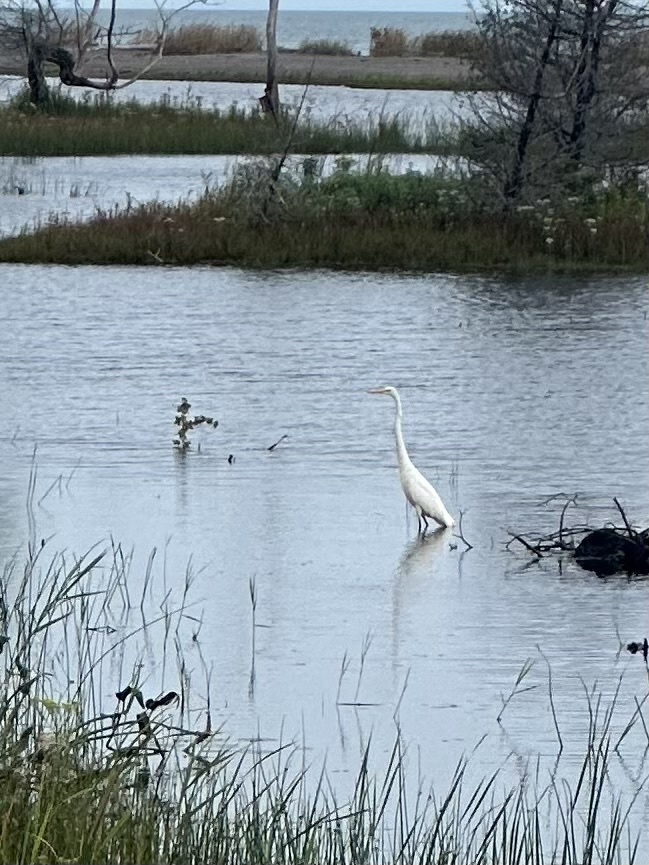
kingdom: Animalia
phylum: Chordata
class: Aves
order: Pelecaniformes
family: Ardeidae
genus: Ardea
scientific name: Ardea alba
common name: Great egret
